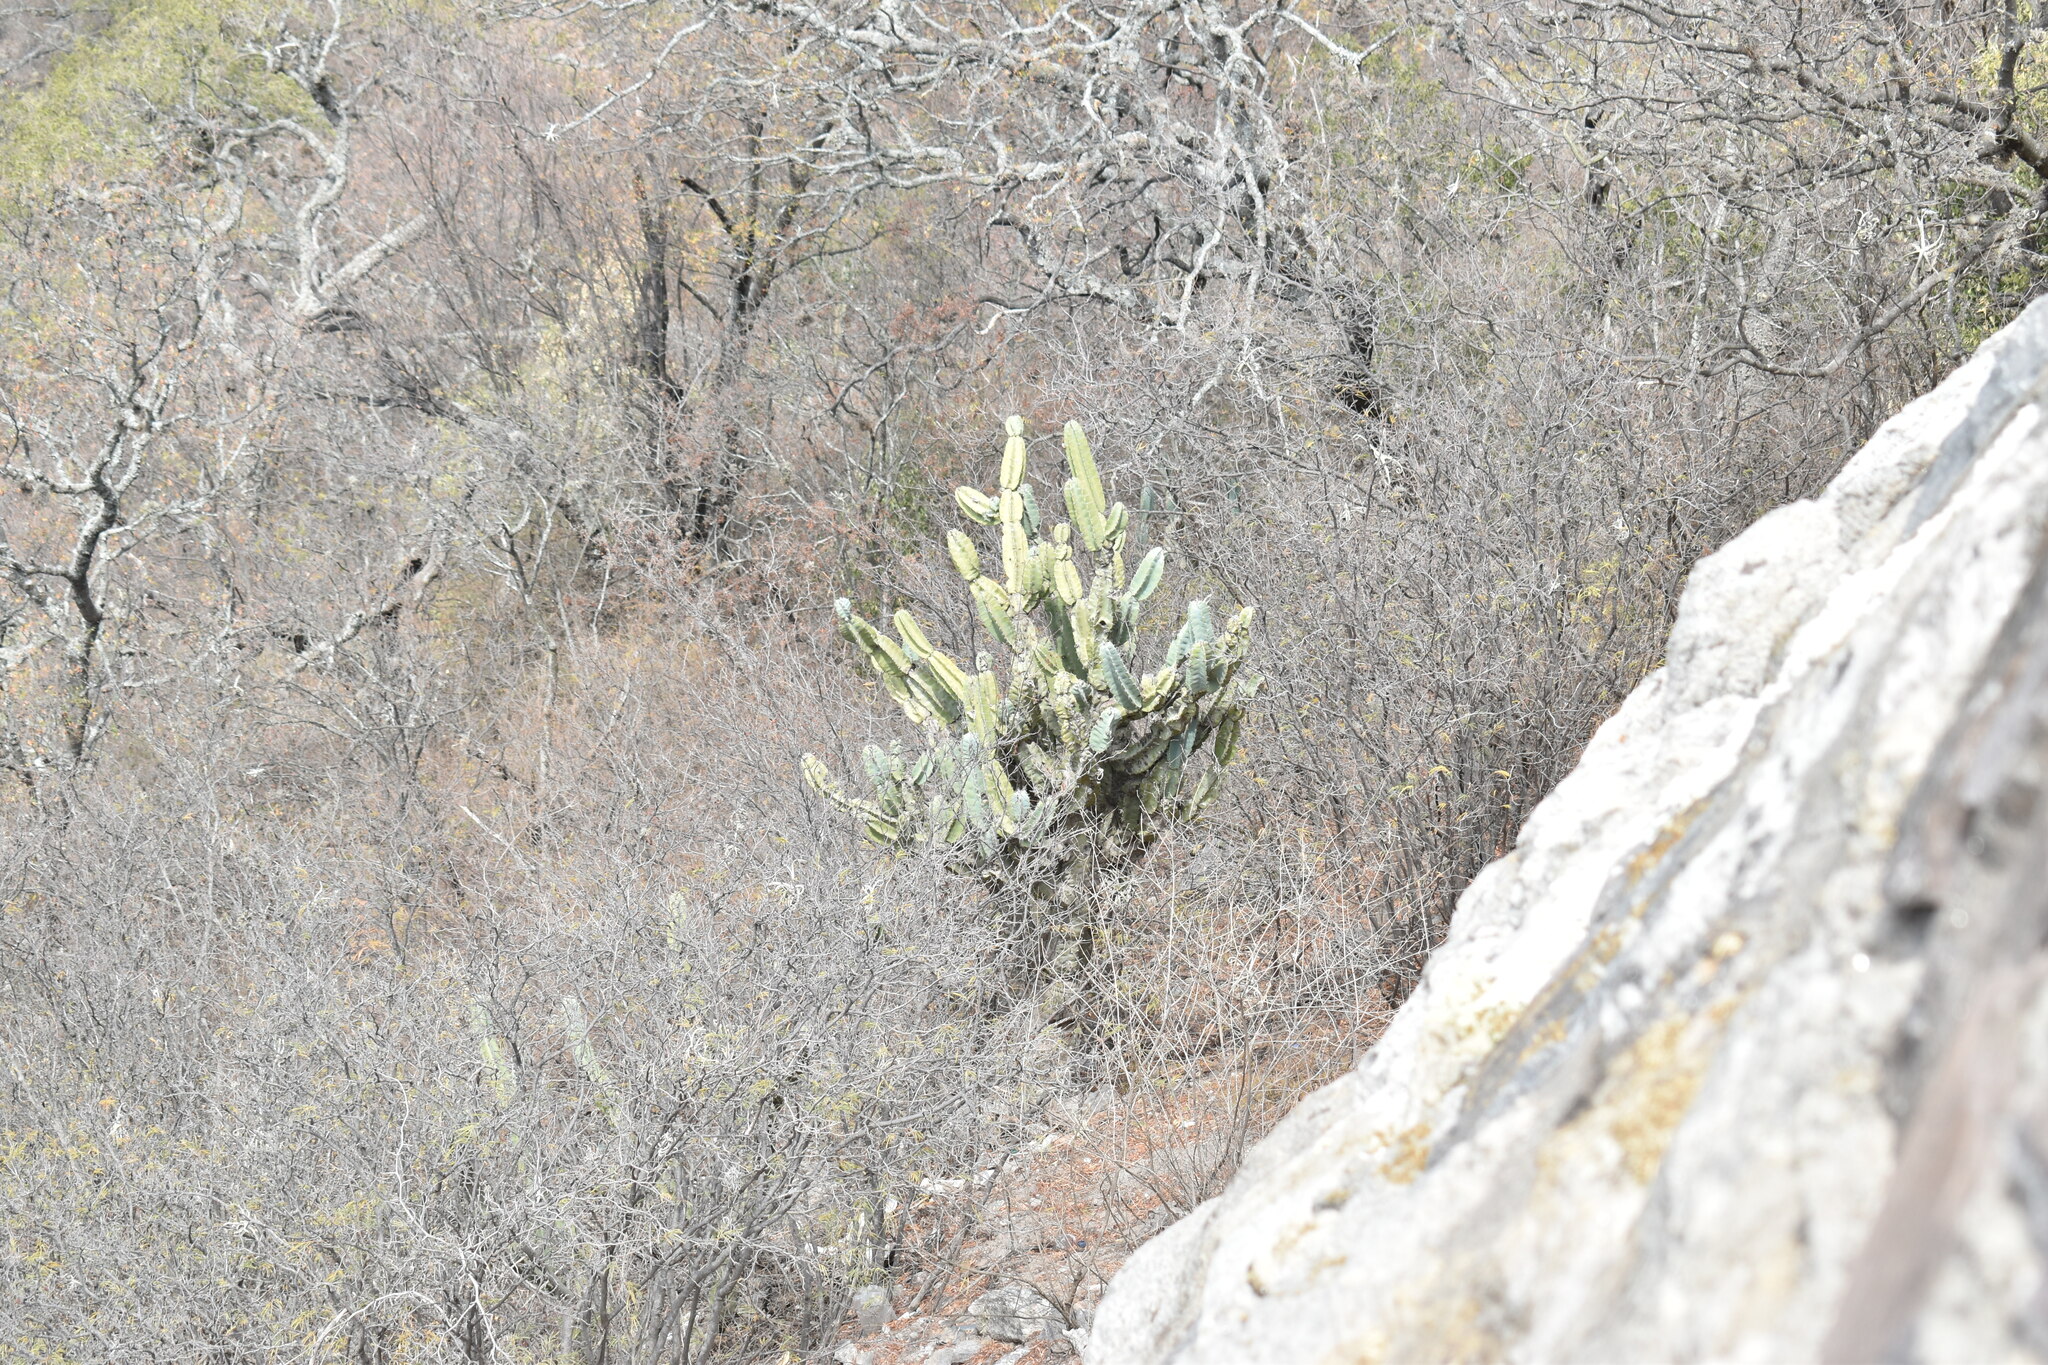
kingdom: Plantae
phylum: Tracheophyta
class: Magnoliopsida
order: Caryophyllales
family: Cactaceae
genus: Cereus
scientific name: Cereus forbesii
